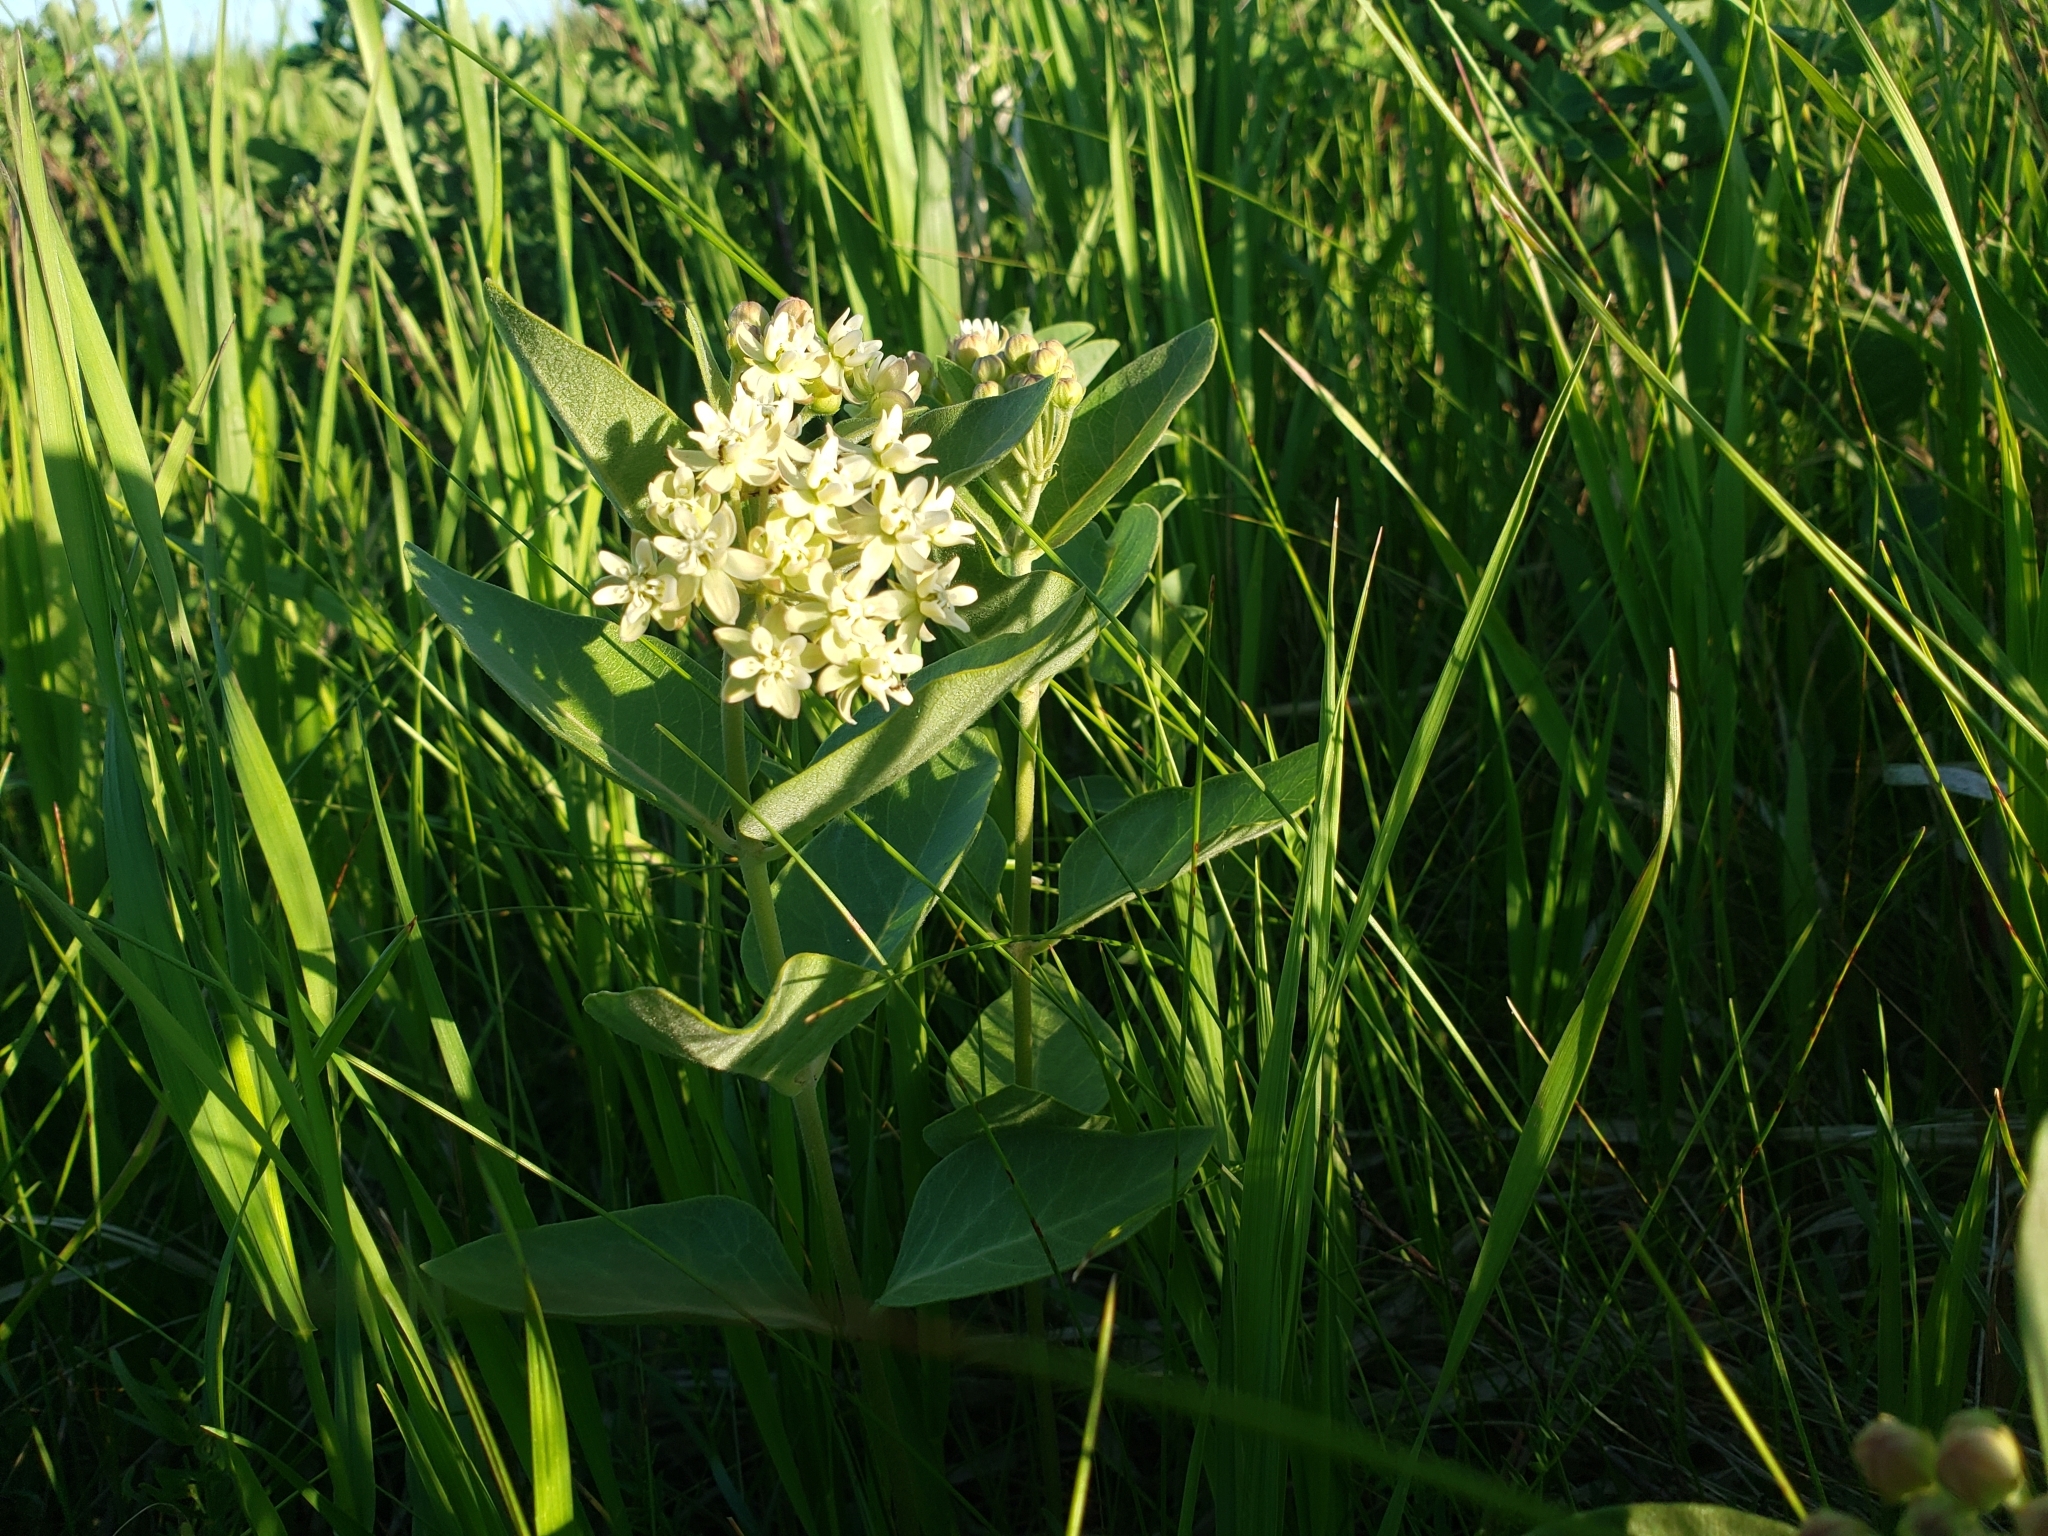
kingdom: Plantae
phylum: Tracheophyta
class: Magnoliopsida
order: Gentianales
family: Apocynaceae
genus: Asclepias
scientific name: Asclepias ovalifolia
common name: Dwarf milkweed
